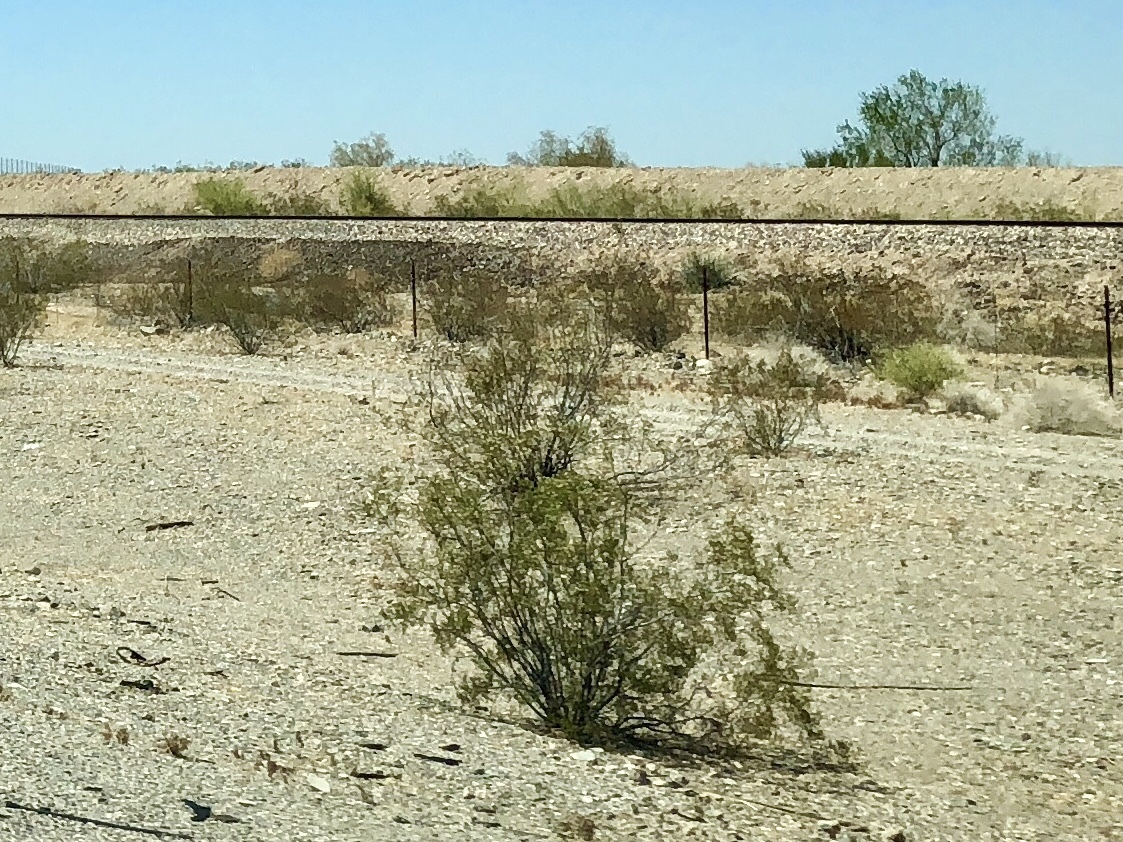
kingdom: Plantae
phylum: Tracheophyta
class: Magnoliopsida
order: Zygophyllales
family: Zygophyllaceae
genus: Larrea
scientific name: Larrea tridentata
